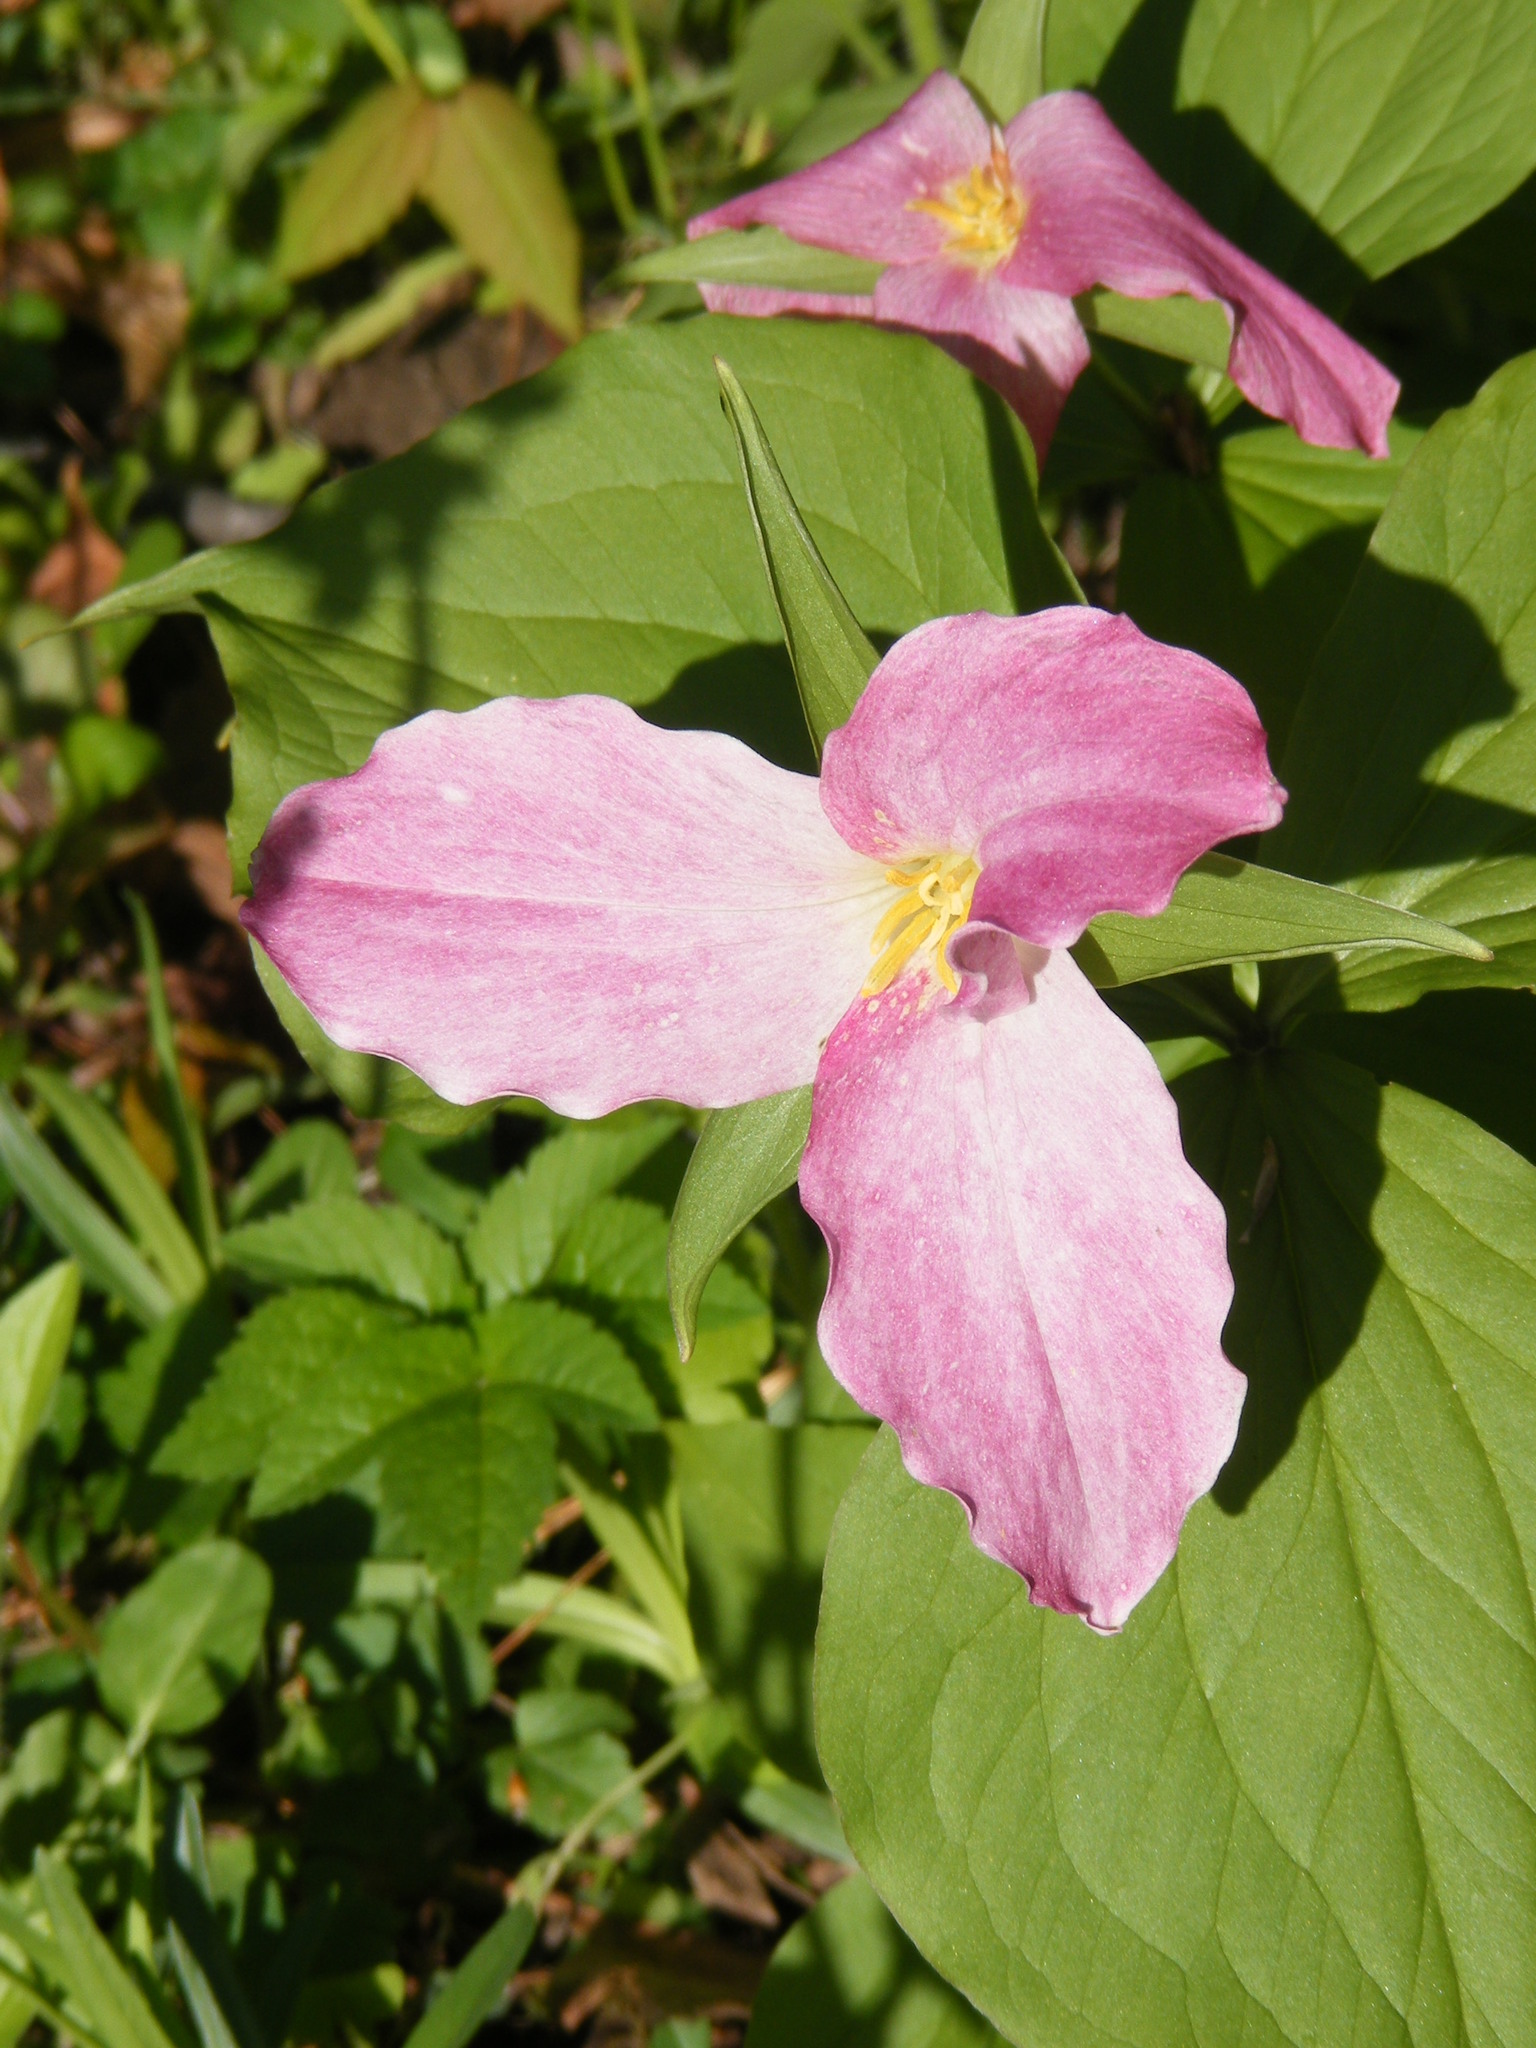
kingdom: Plantae
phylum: Tracheophyta
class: Liliopsida
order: Liliales
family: Melanthiaceae
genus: Trillium
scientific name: Trillium grandiflorum
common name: Great white trillium
